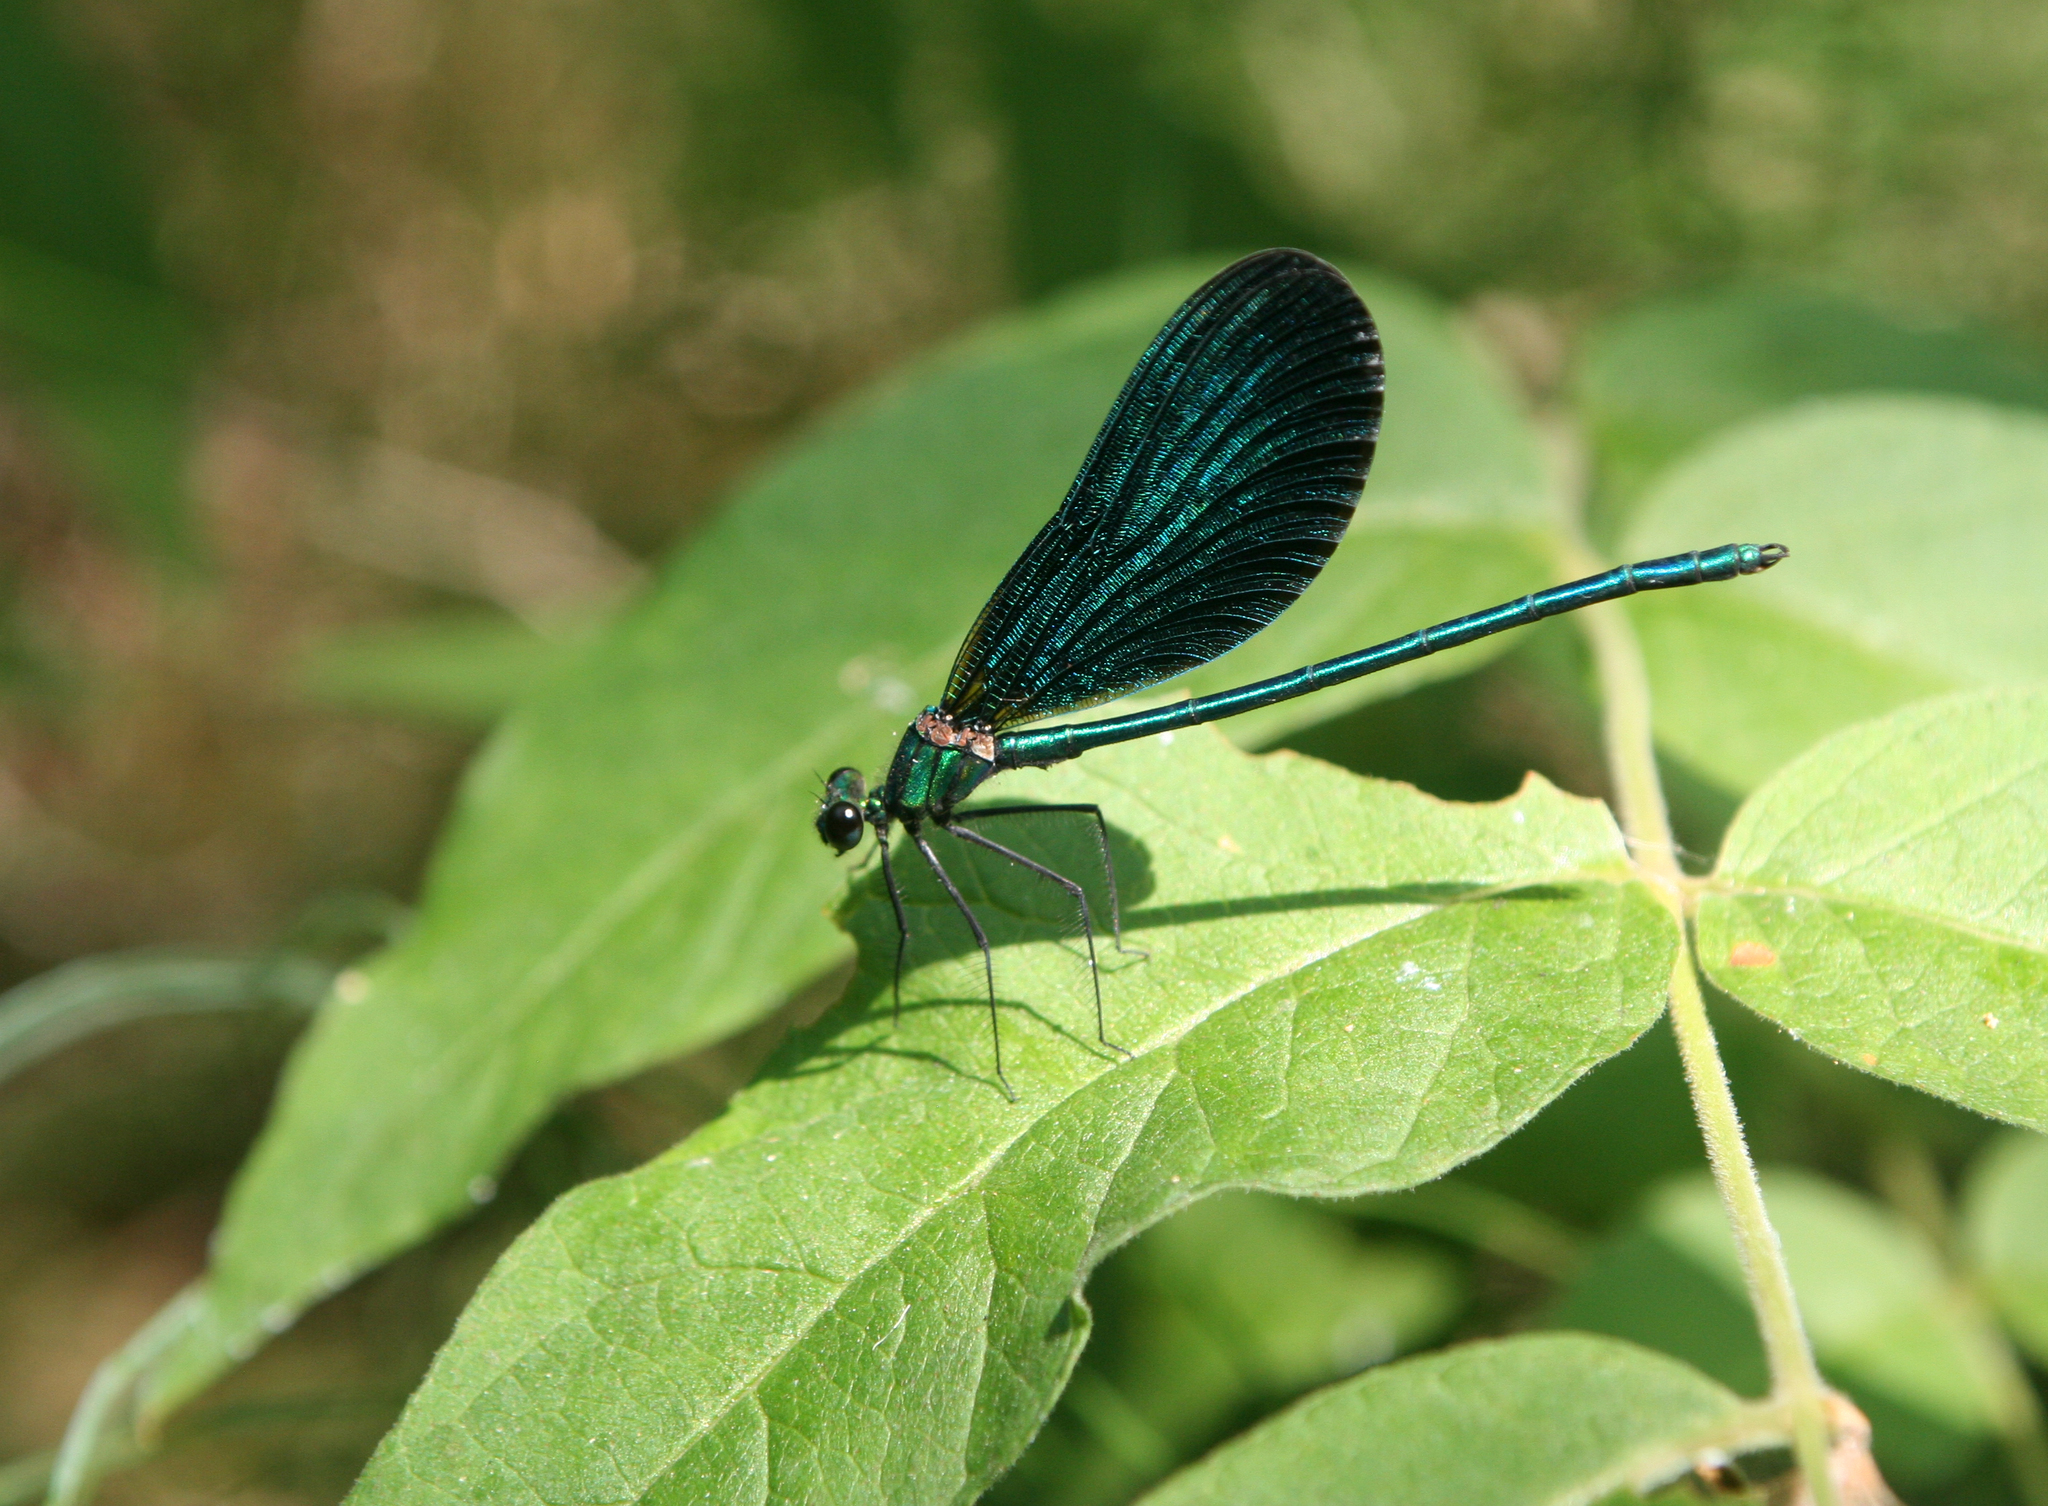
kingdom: Animalia
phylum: Arthropoda
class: Insecta
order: Odonata
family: Calopterygidae
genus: Calopteryx
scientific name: Calopteryx virgo
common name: Beautiful demoiselle
